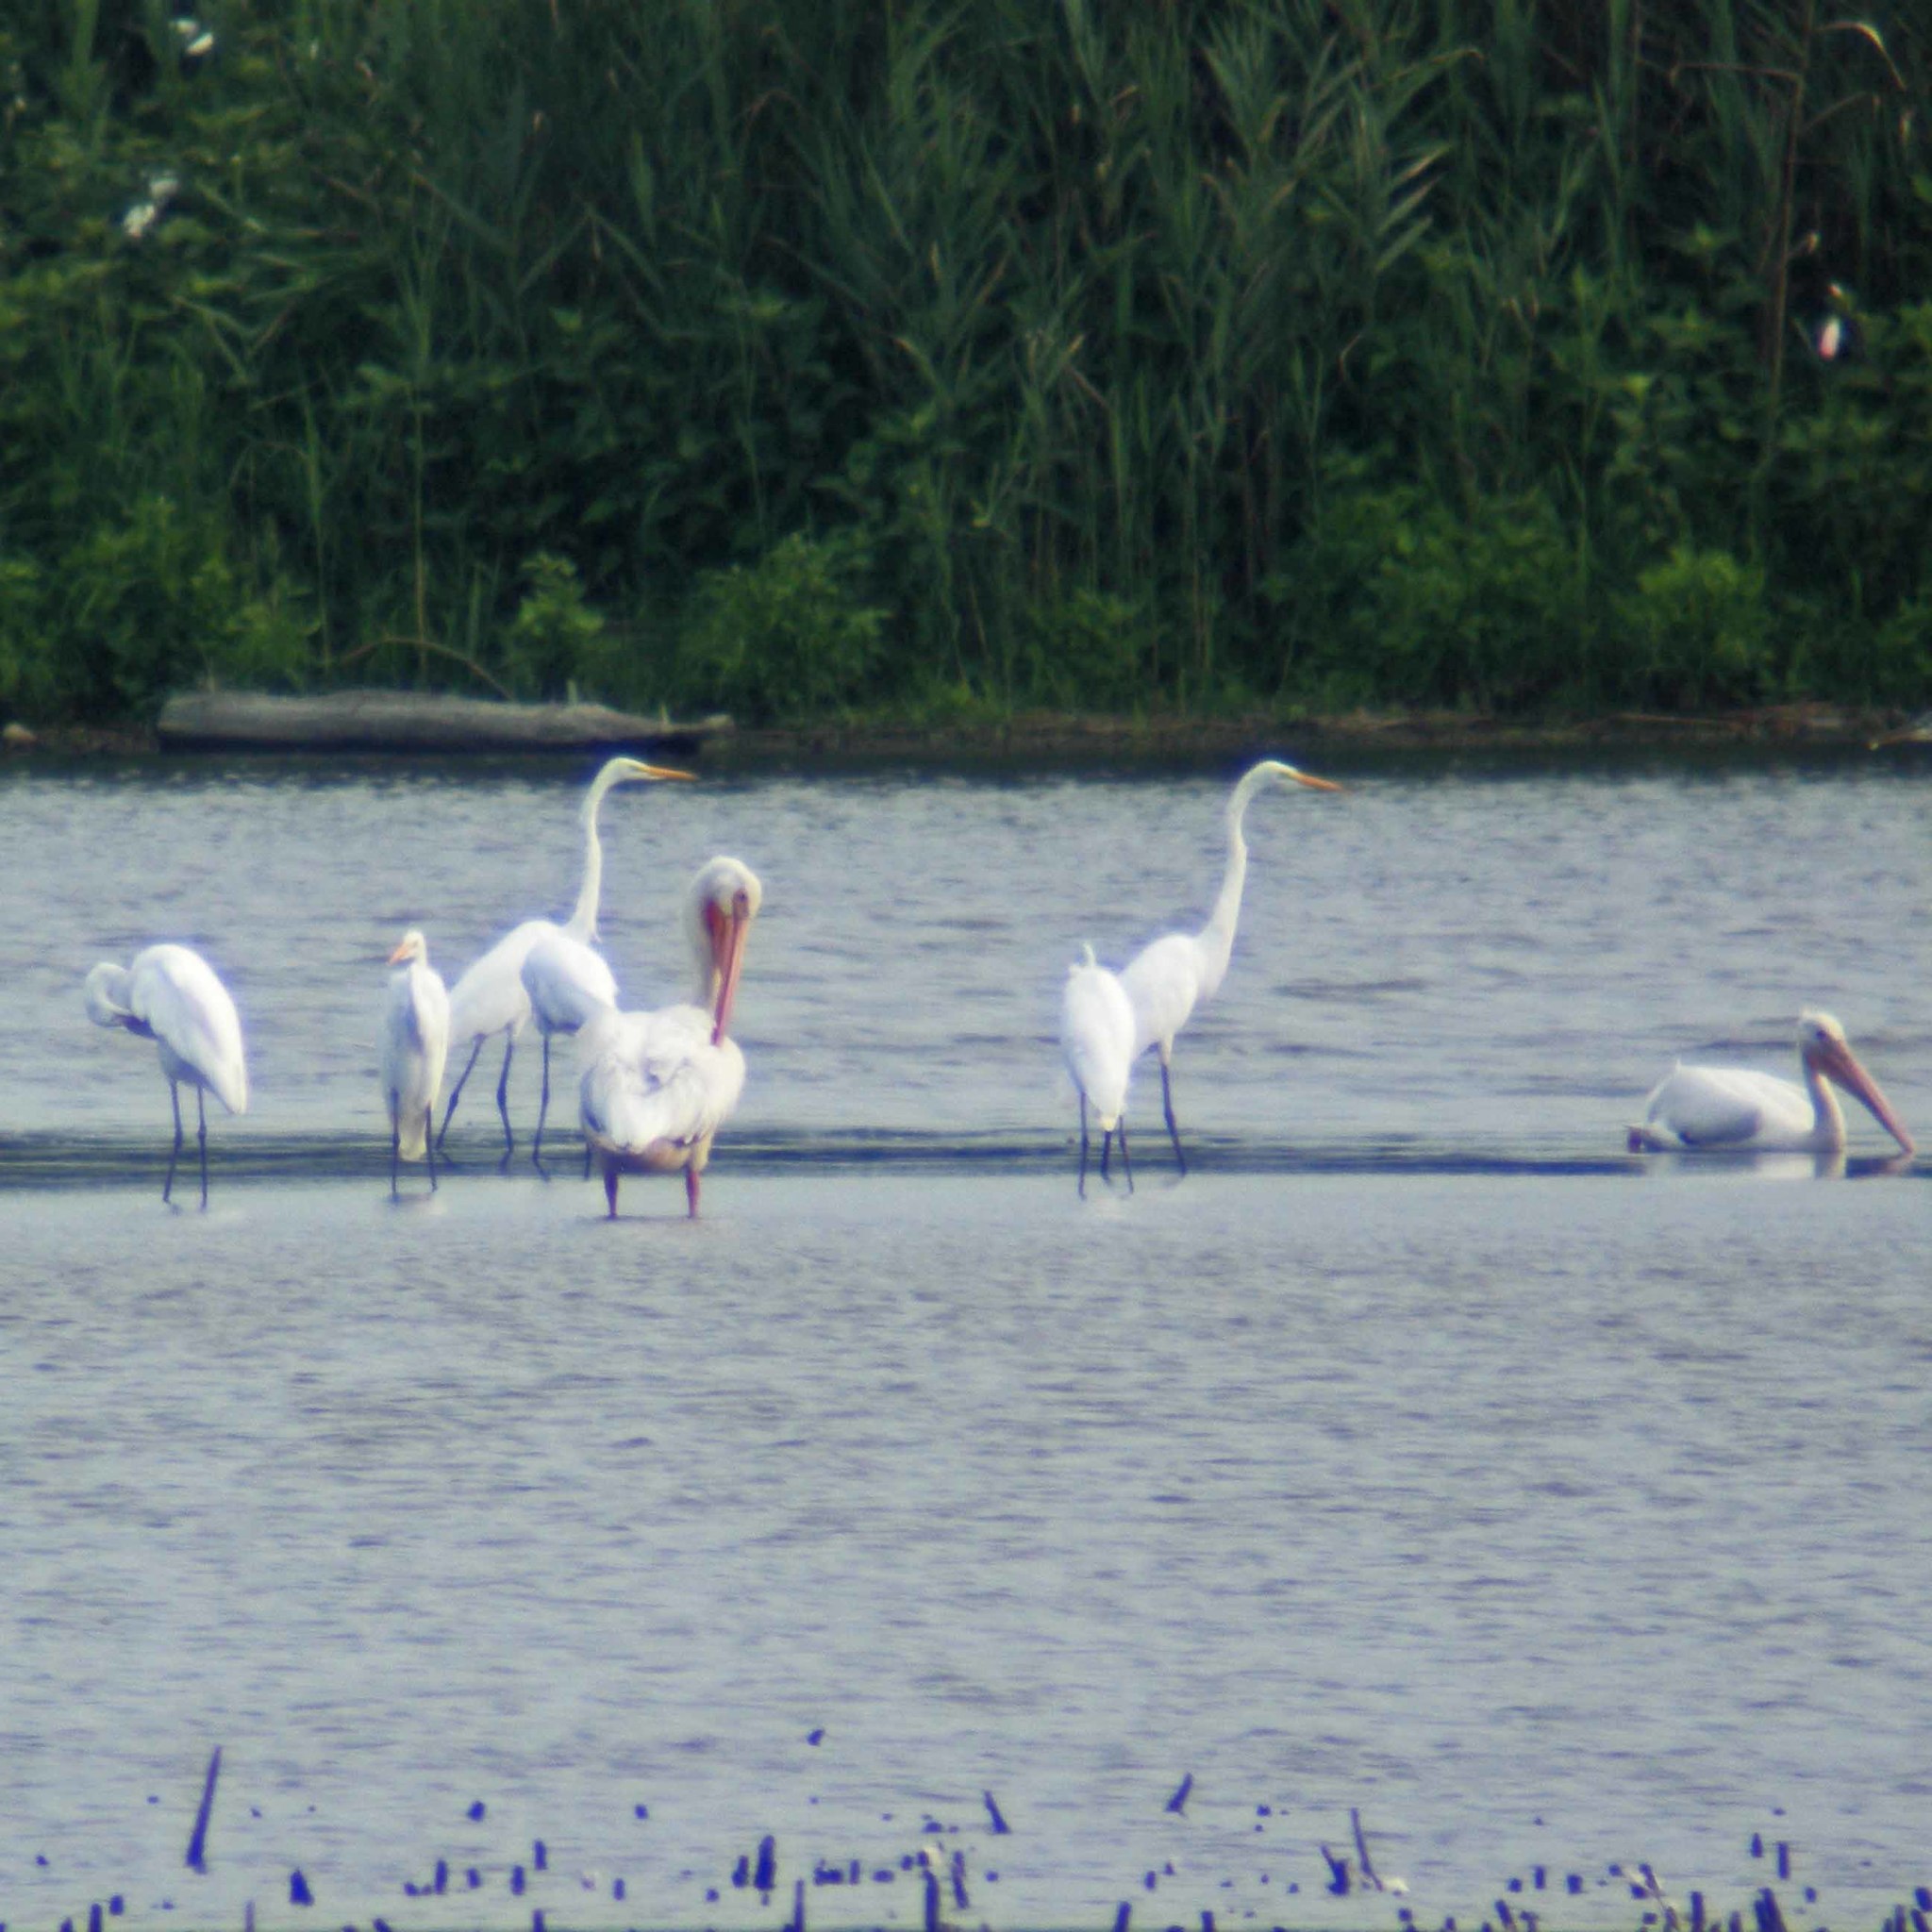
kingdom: Animalia
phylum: Chordata
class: Aves
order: Pelecaniformes
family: Pelecanidae
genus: Pelecanus
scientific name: Pelecanus erythrorhynchos
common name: American white pelican
